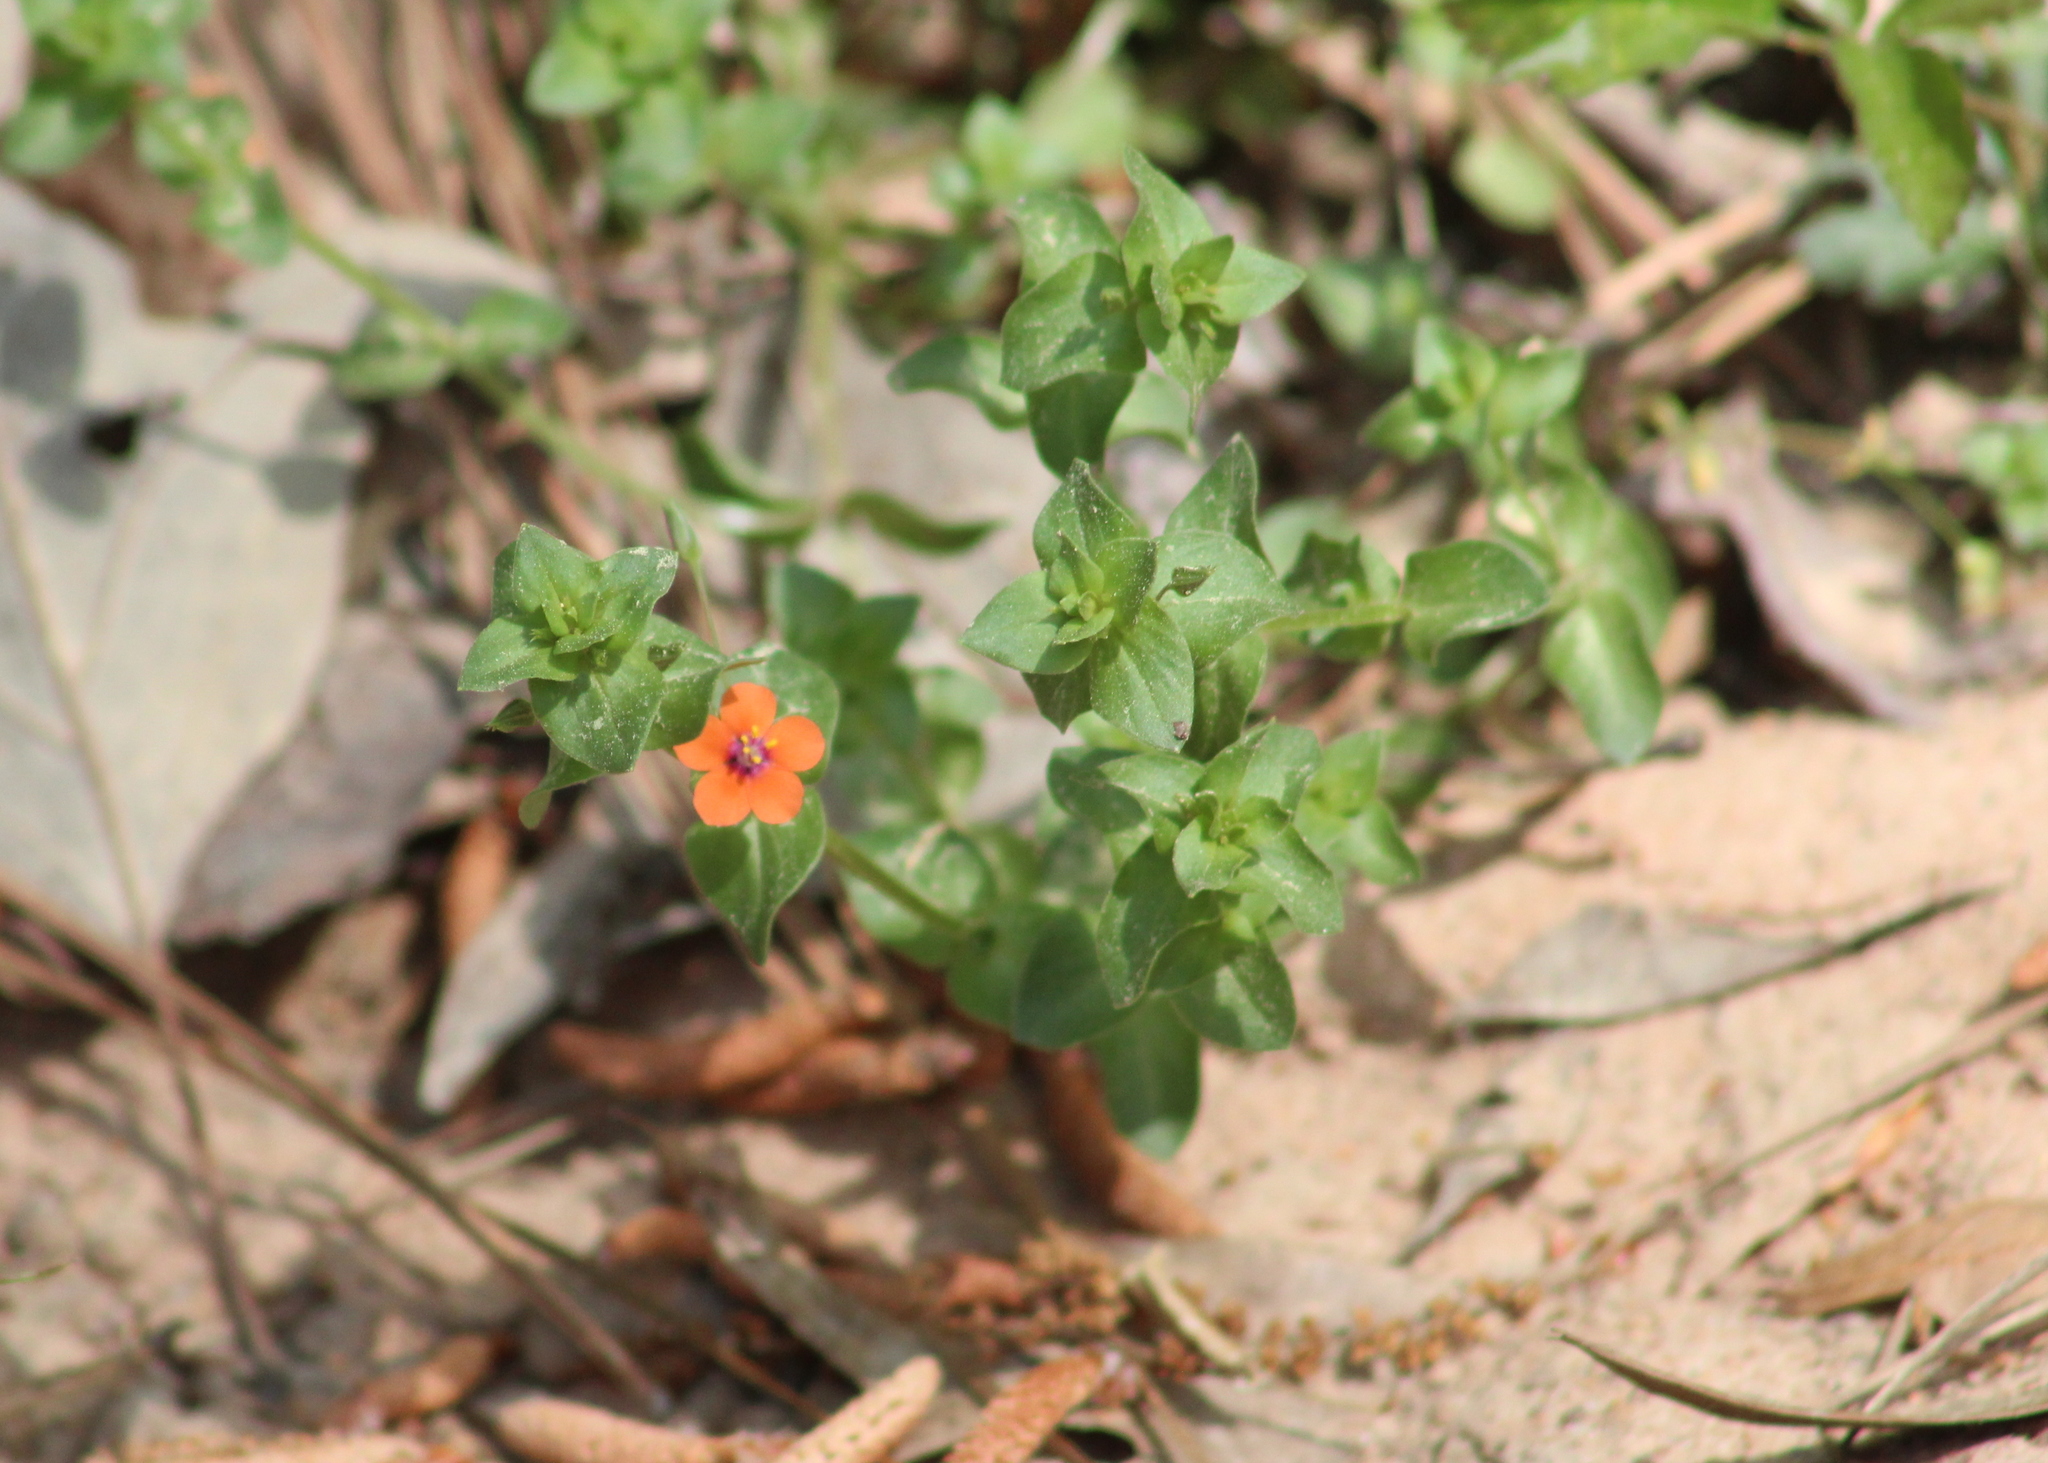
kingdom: Plantae
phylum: Tracheophyta
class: Magnoliopsida
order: Ericales
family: Primulaceae
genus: Lysimachia
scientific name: Lysimachia arvensis
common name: Scarlet pimpernel
